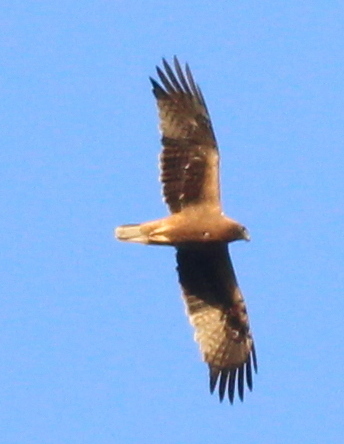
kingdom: Animalia
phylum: Chordata
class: Aves
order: Accipitriformes
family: Accipitridae
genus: Hieraaetus
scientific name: Hieraaetus pennatus
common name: Booted eagle
